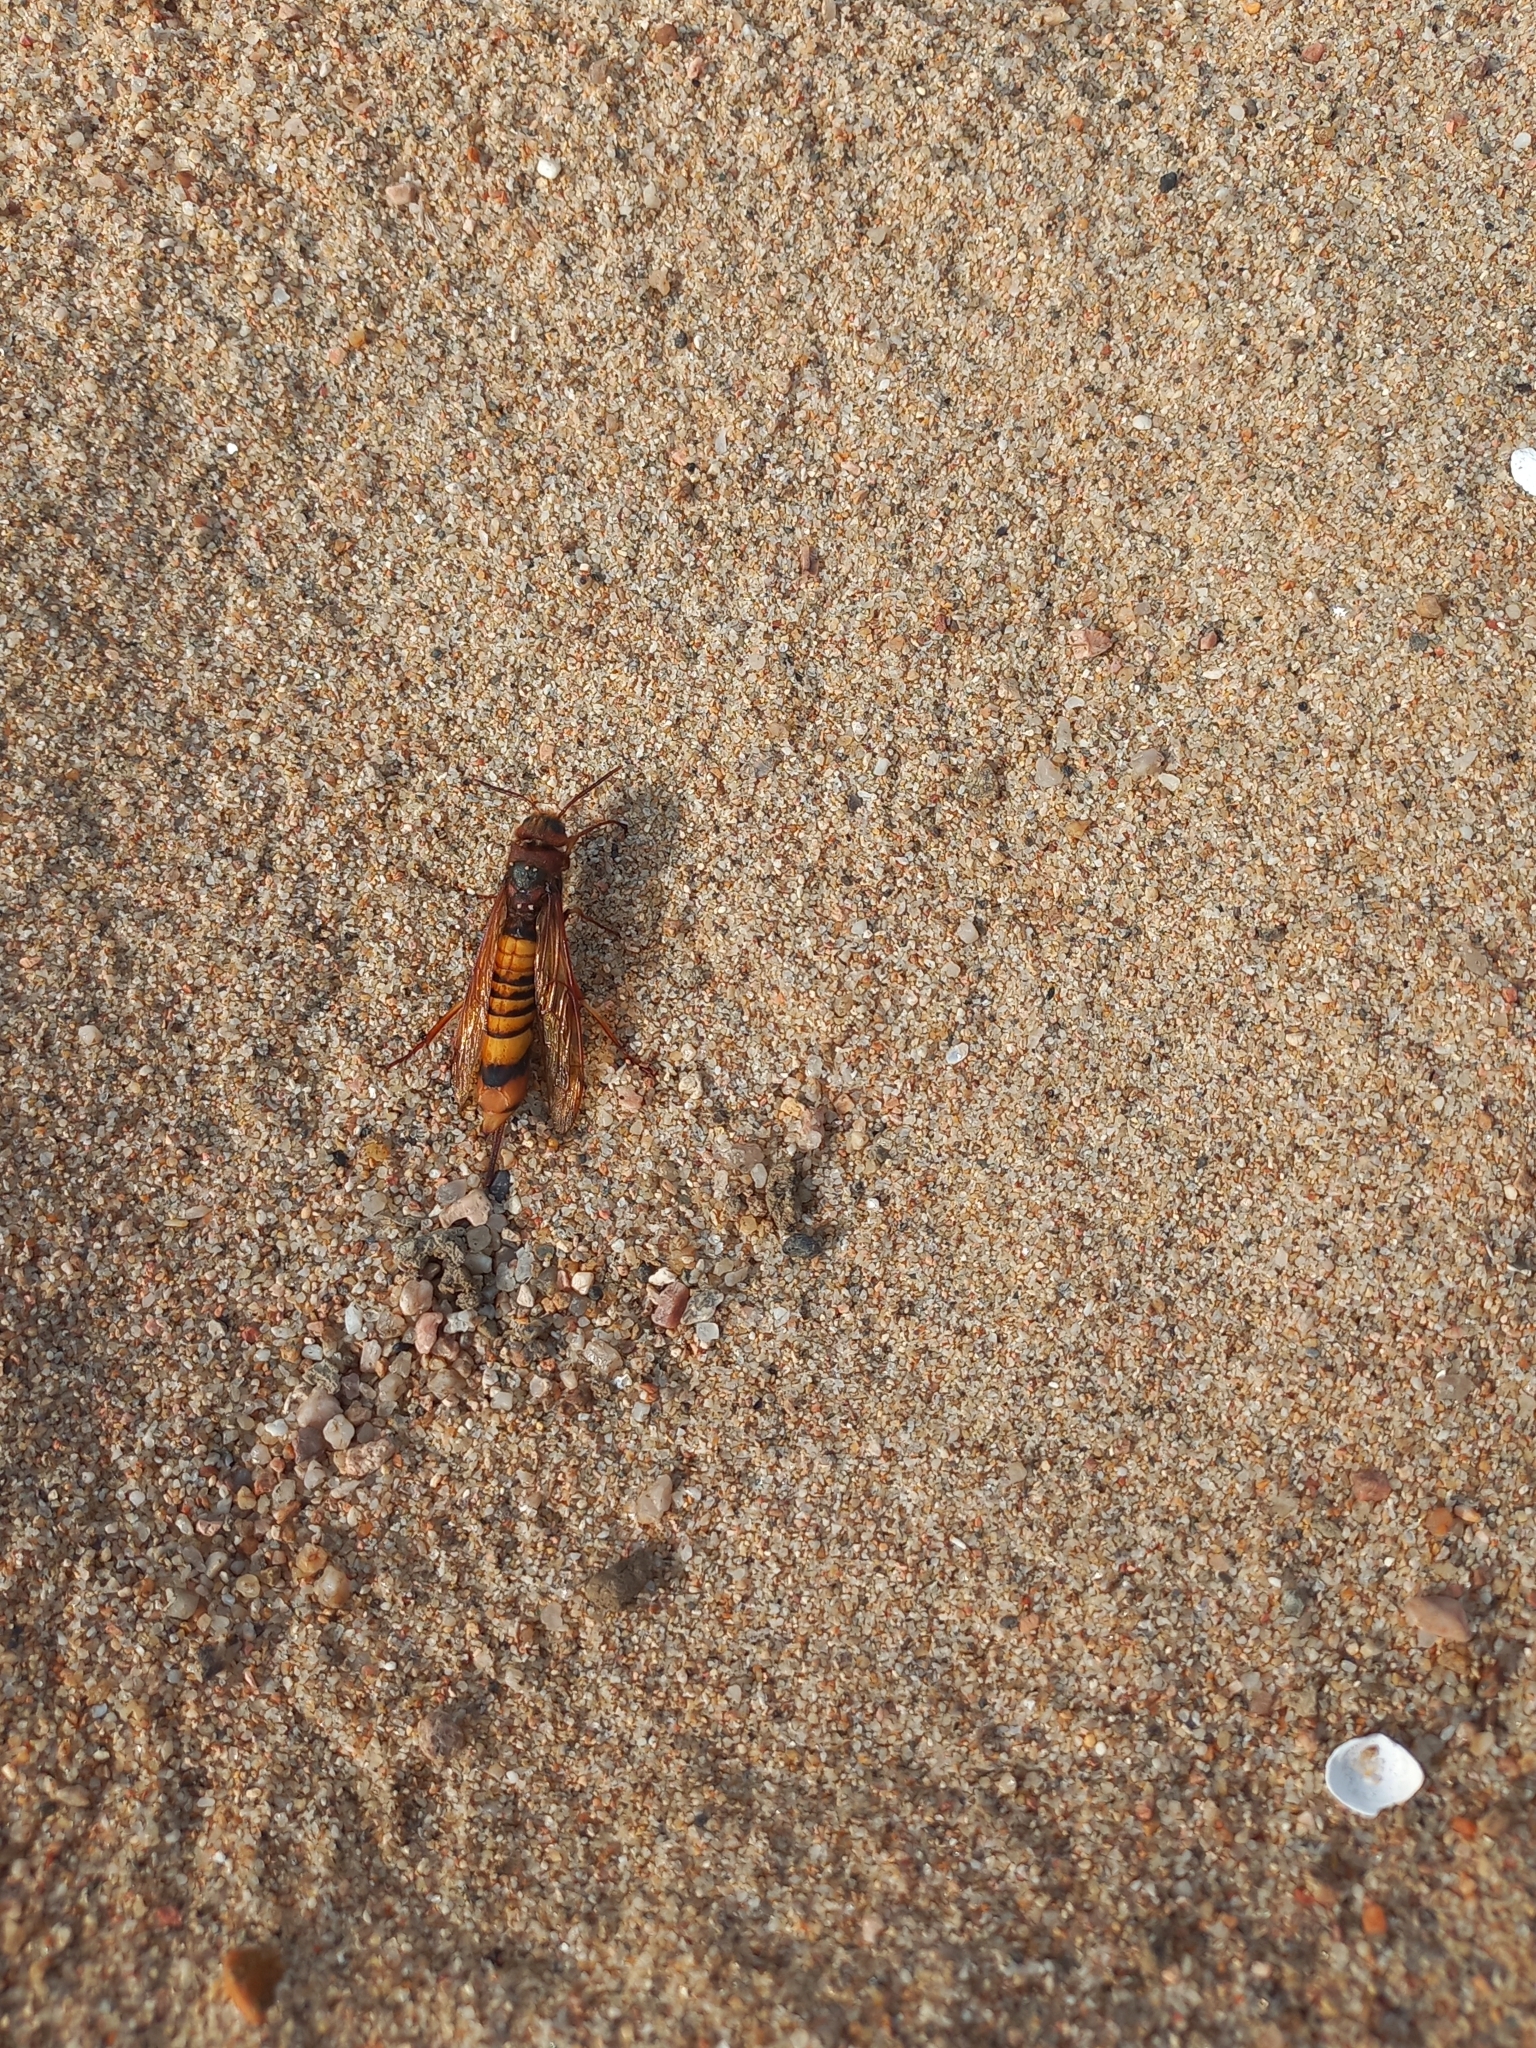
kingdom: Animalia
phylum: Arthropoda
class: Insecta
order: Hymenoptera
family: Siricidae
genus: Tremex
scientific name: Tremex fuscicornis
